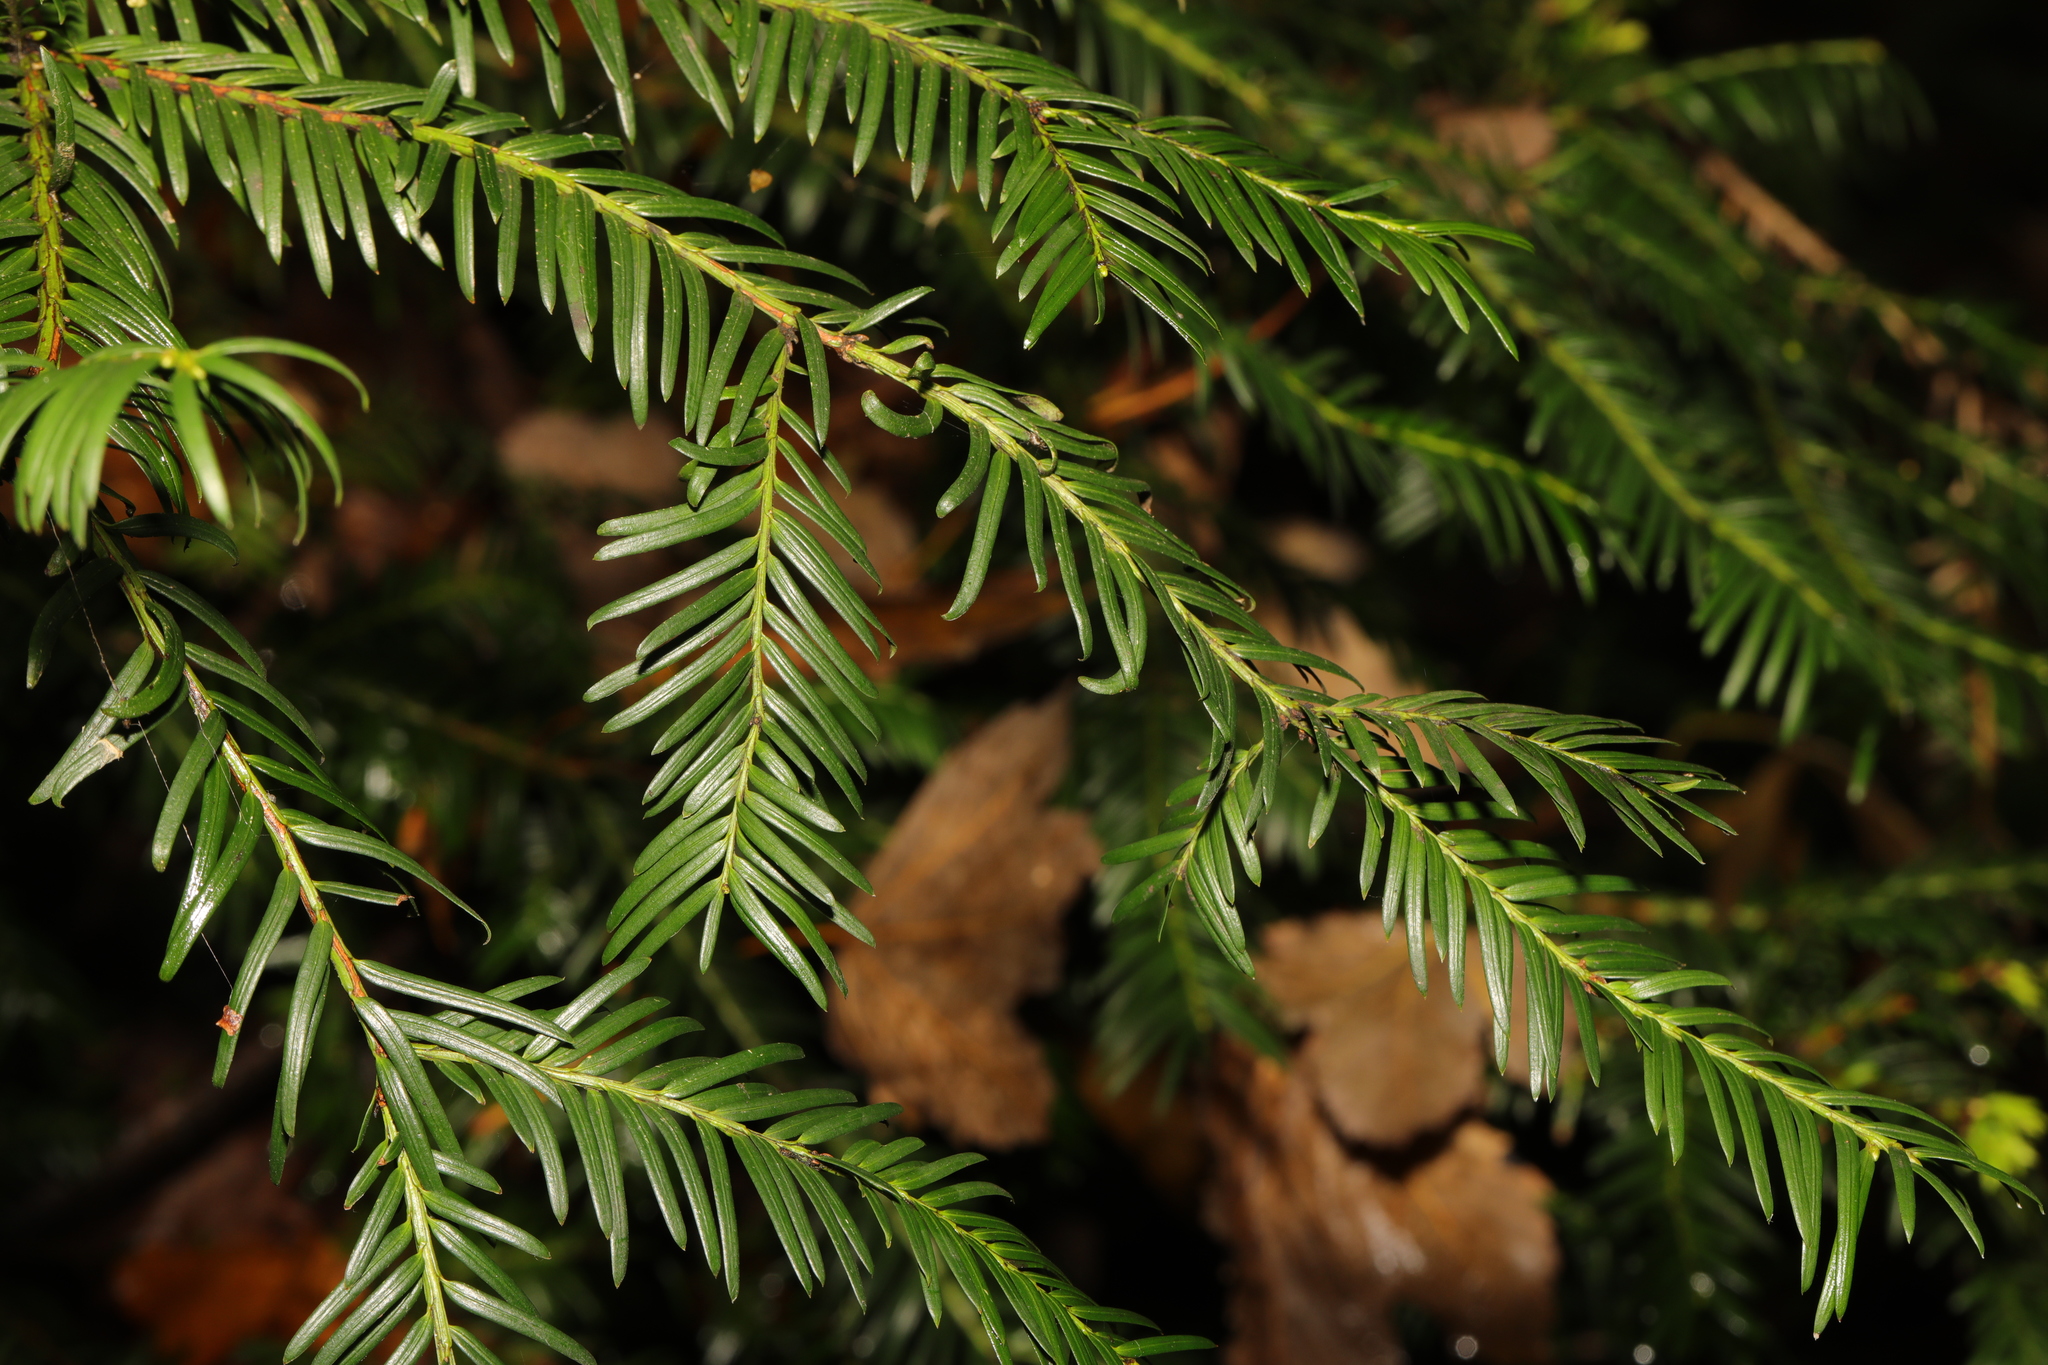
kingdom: Plantae
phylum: Tracheophyta
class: Pinopsida
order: Pinales
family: Taxaceae
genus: Taxus
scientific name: Taxus baccata
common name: Yew
